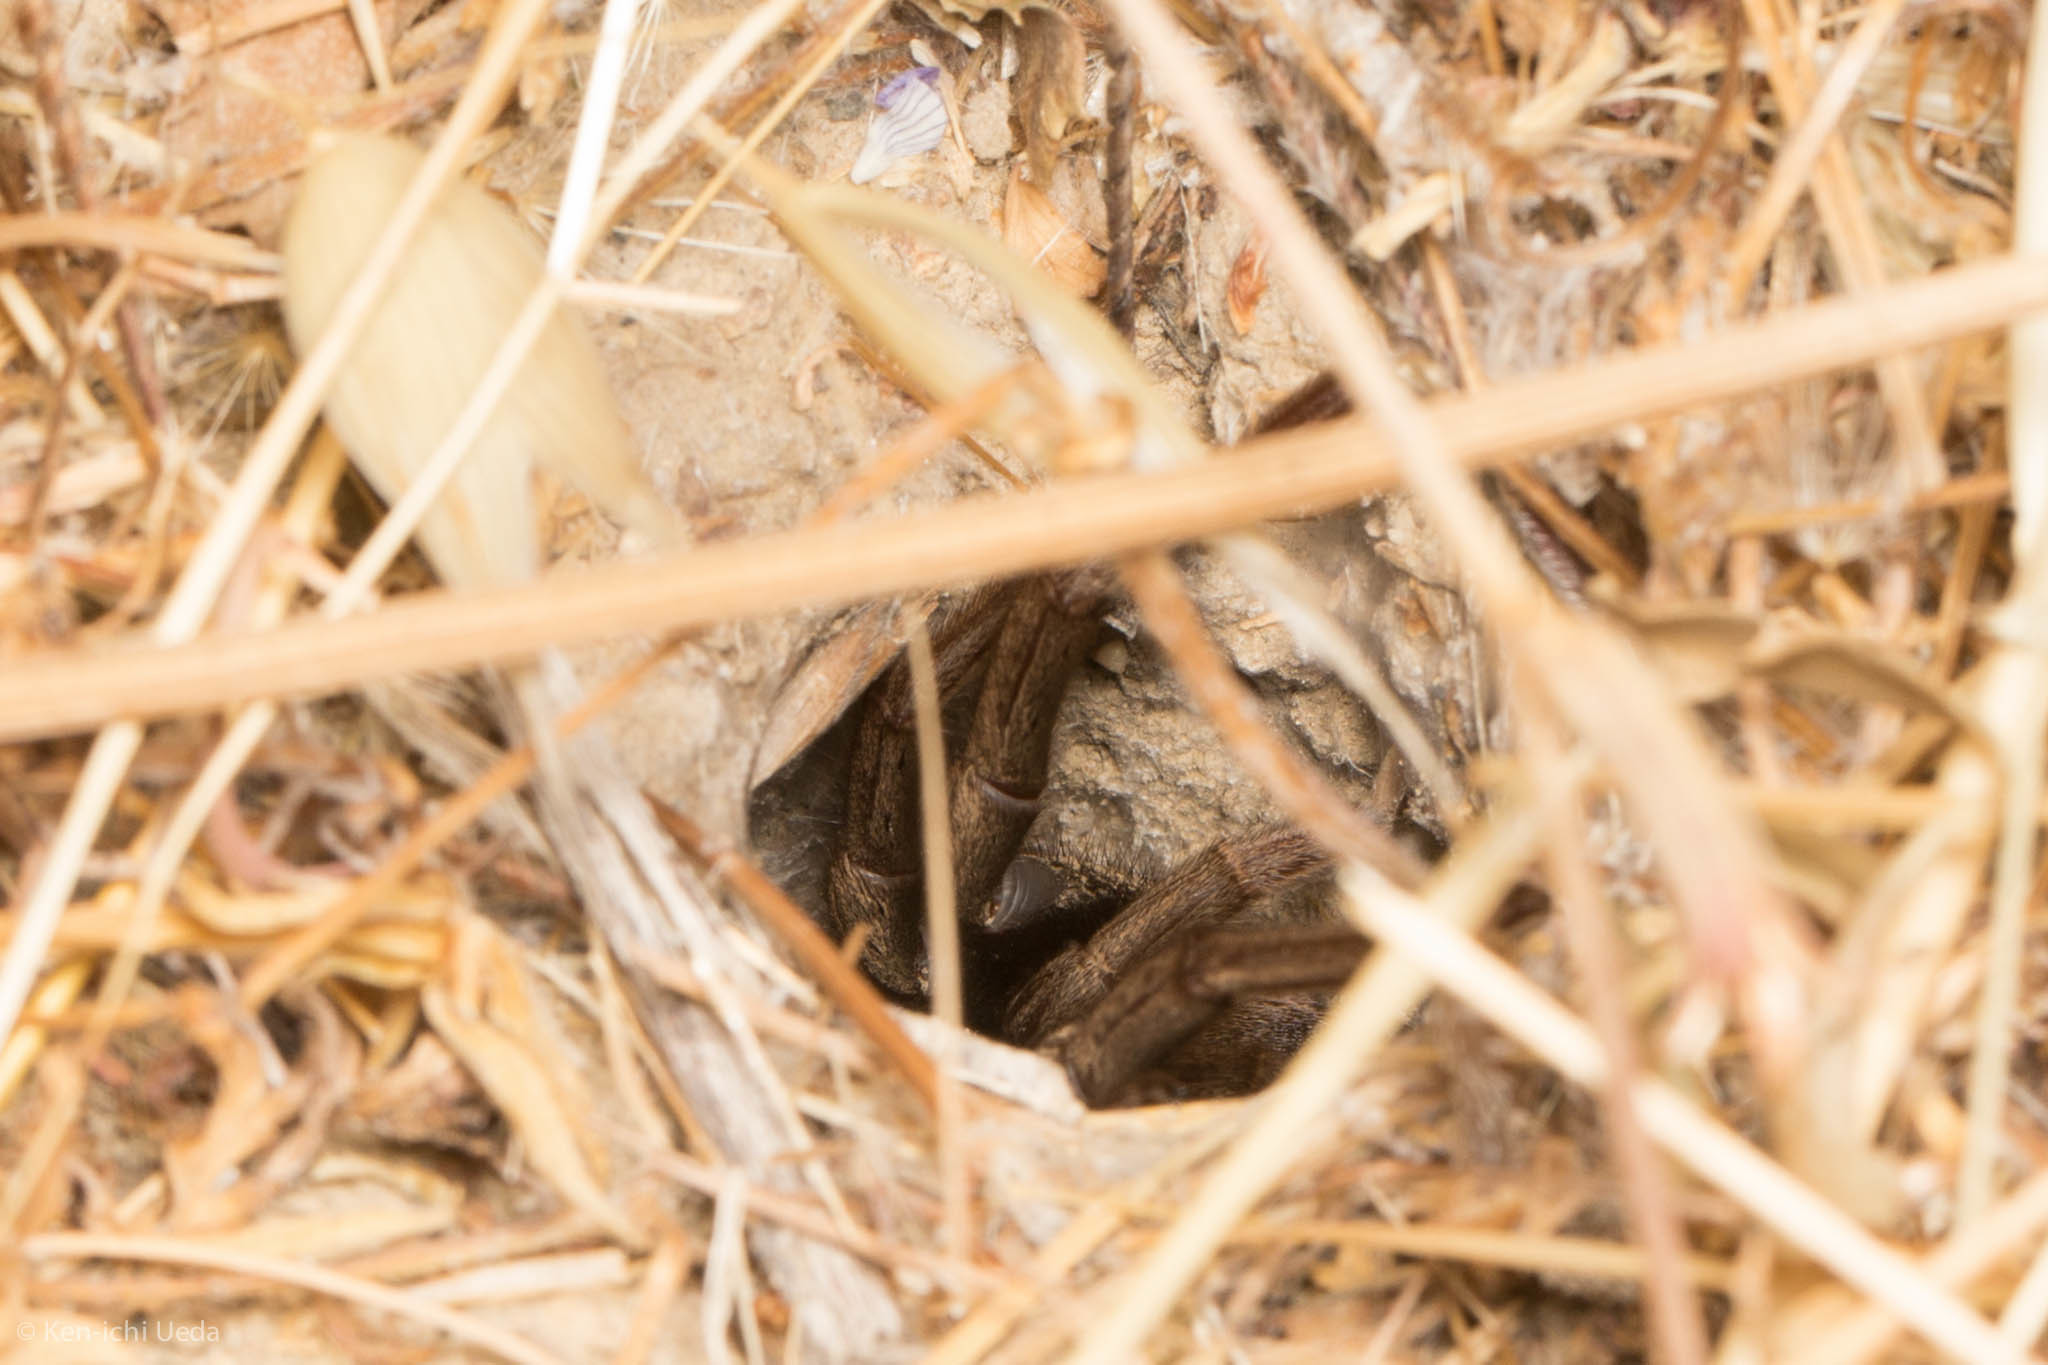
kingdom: Animalia
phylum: Arthropoda
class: Arachnida
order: Araneae
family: Nemesiidae
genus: Calisoga
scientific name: Calisoga longitarsis
